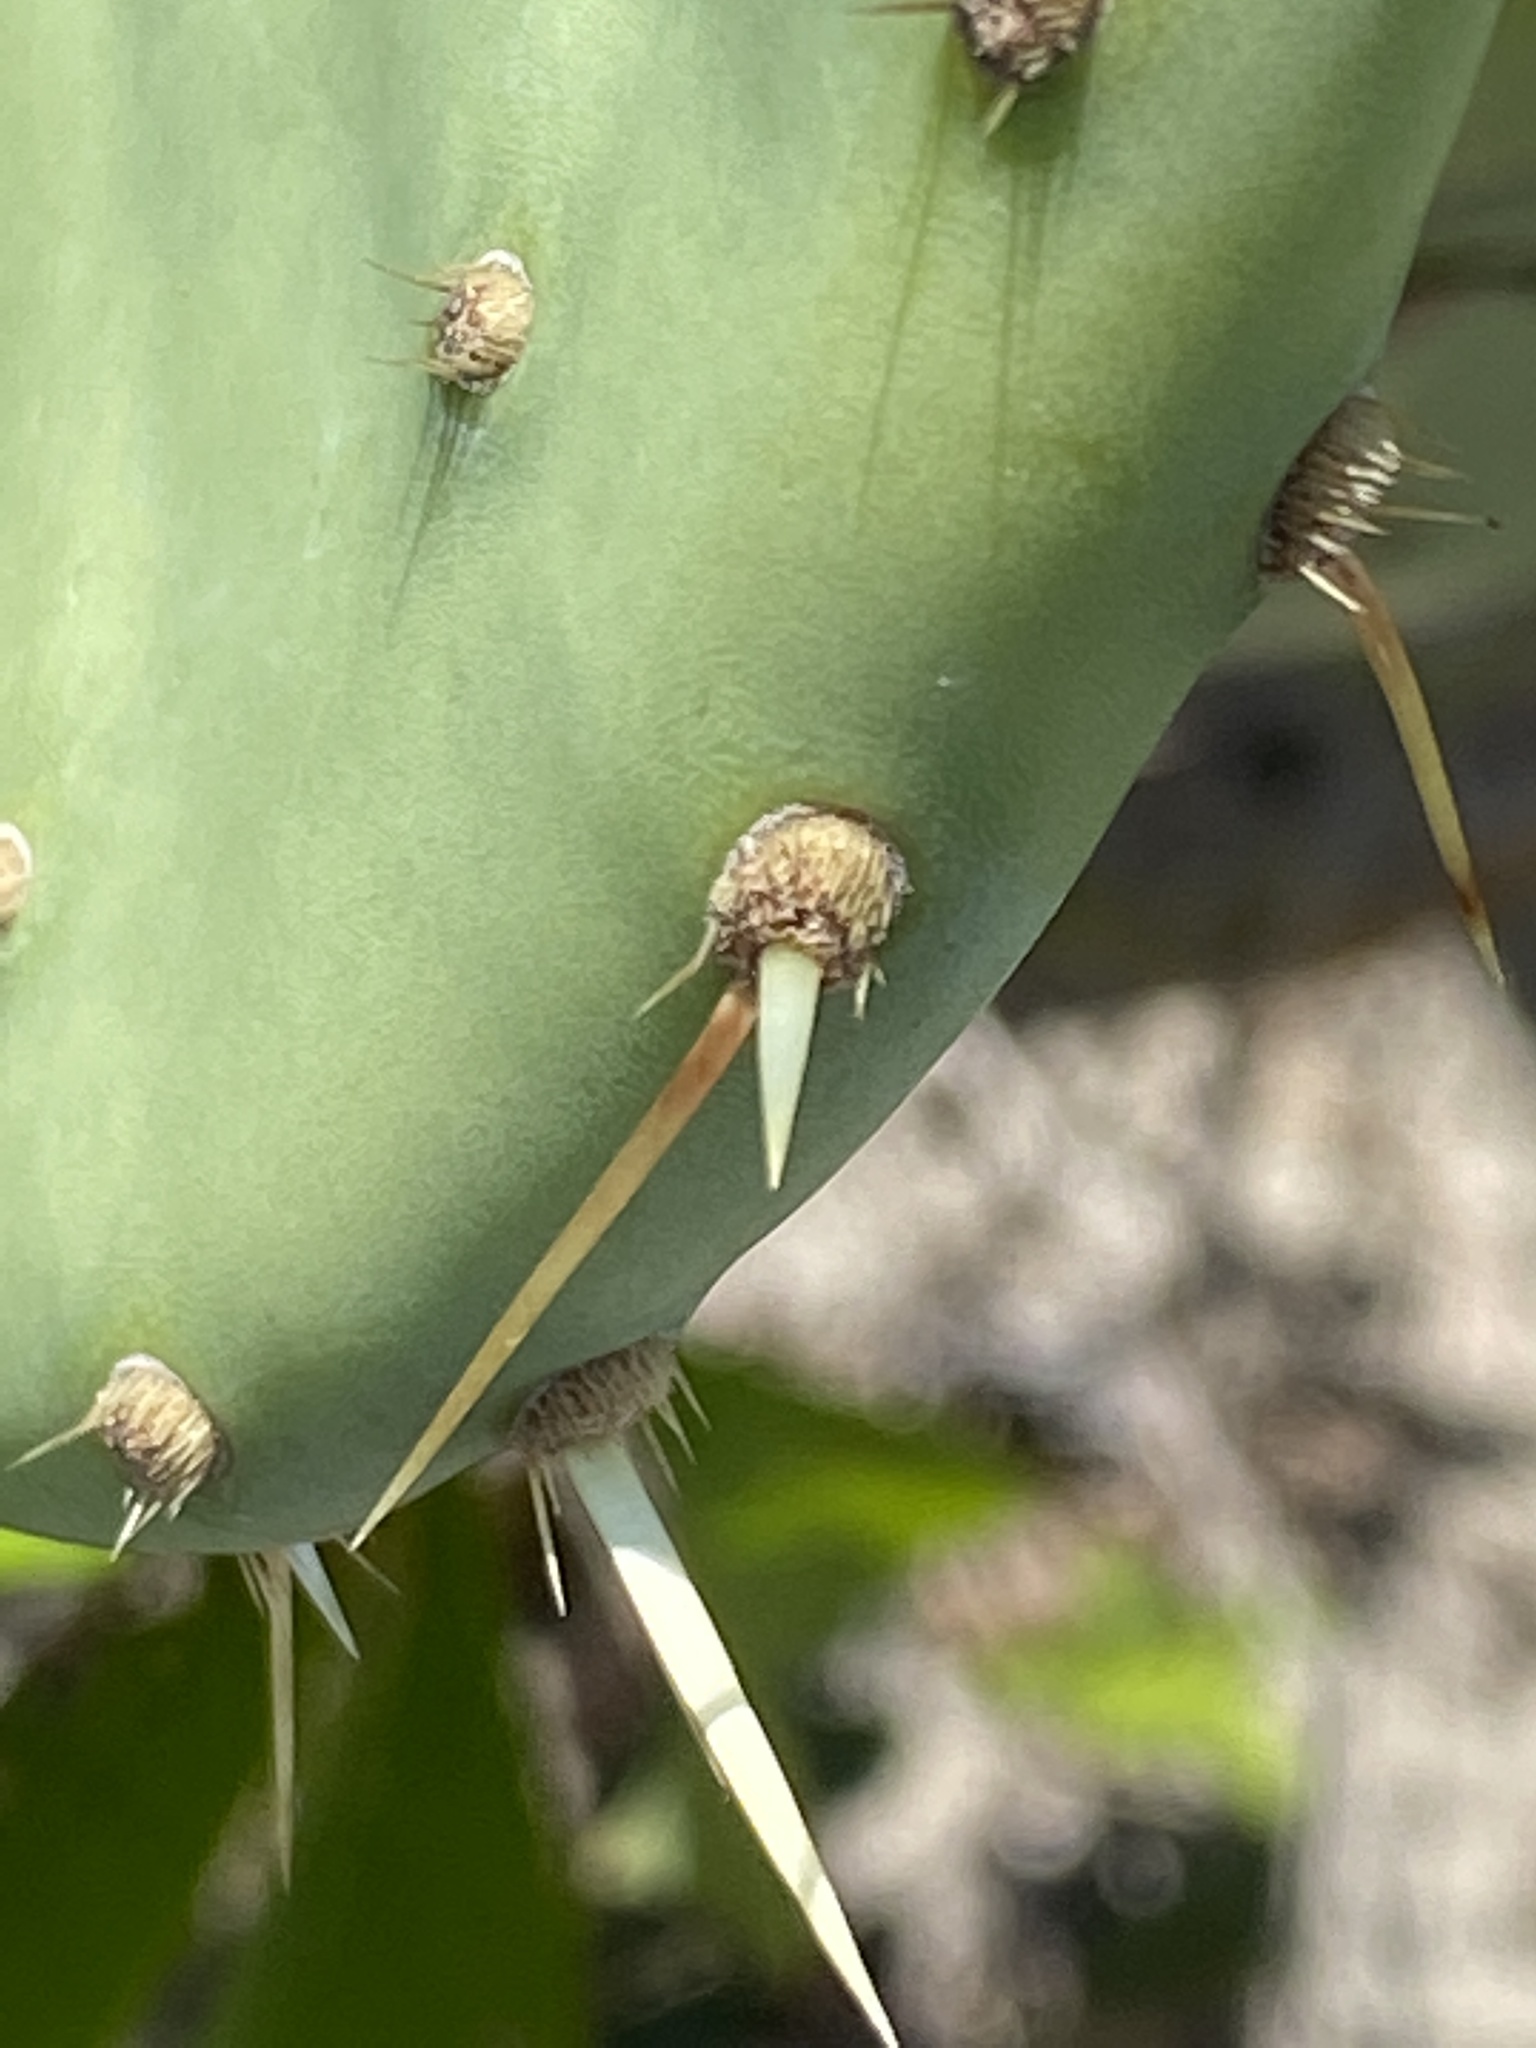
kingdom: Plantae
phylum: Tracheophyta
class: Magnoliopsida
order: Caryophyllales
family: Cactaceae
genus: Opuntia
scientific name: Opuntia tunoidea
